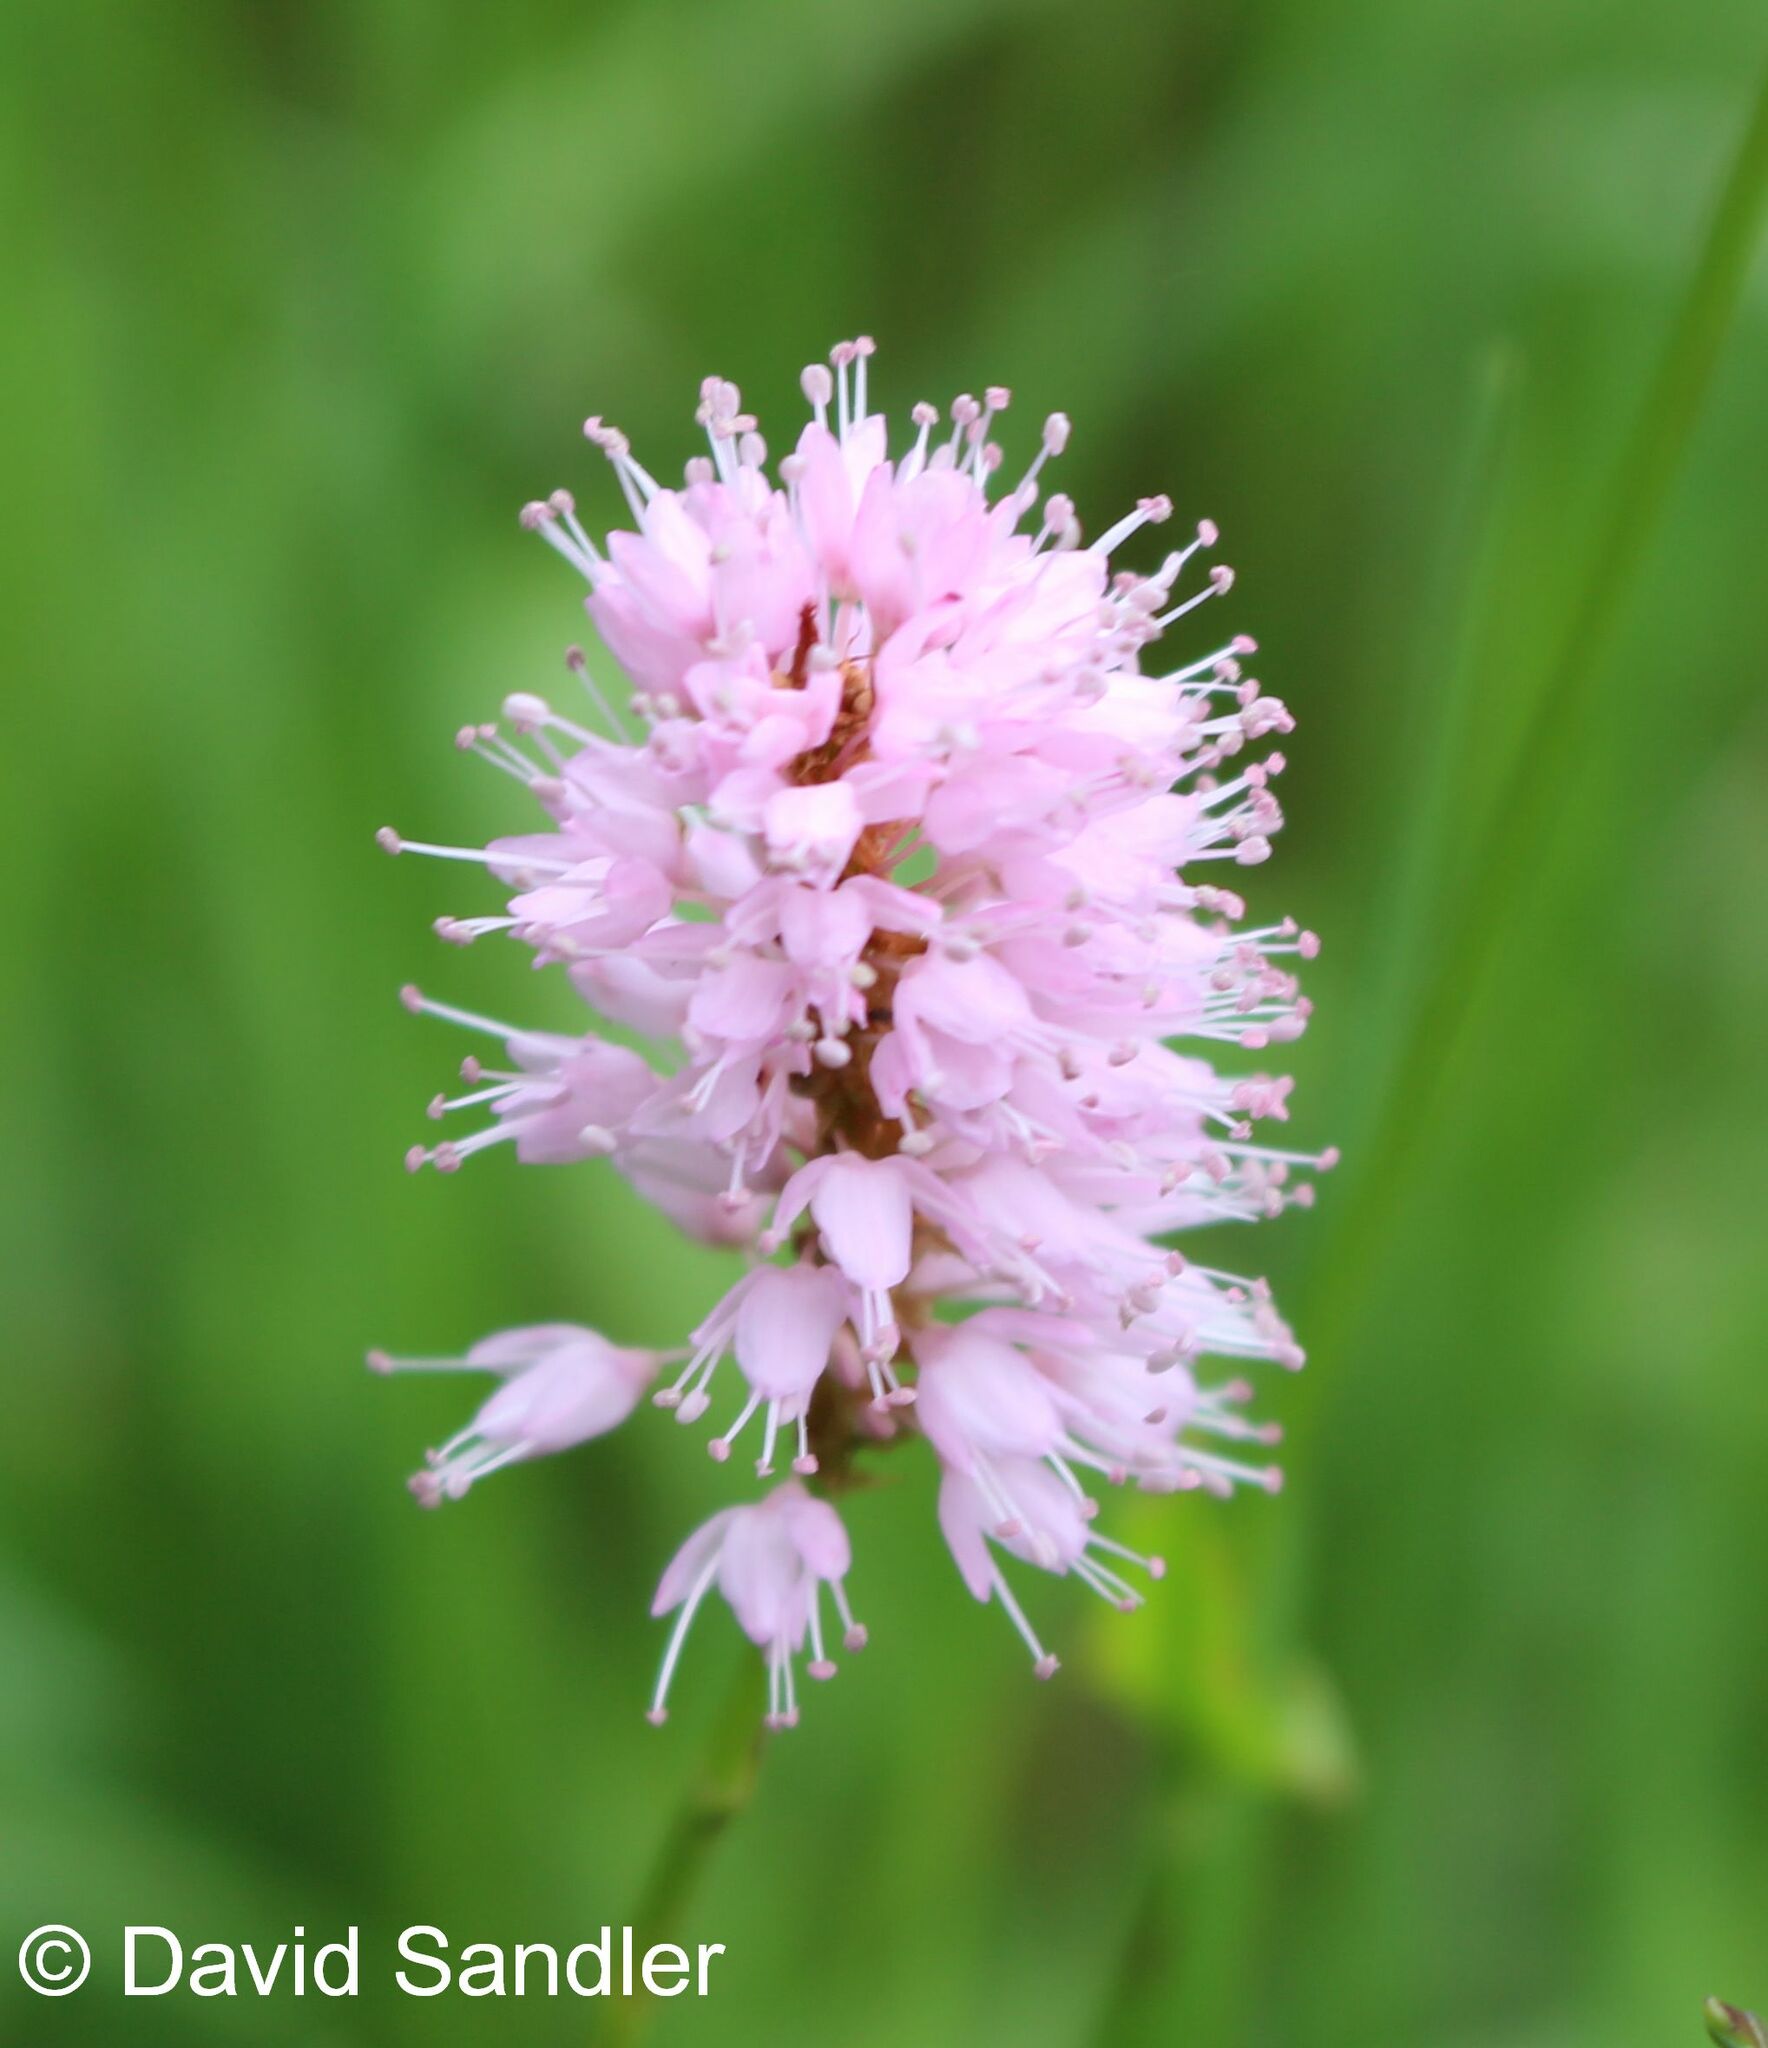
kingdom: Plantae
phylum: Tracheophyta
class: Magnoliopsida
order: Caryophyllales
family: Polygonaceae
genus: Bistorta
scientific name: Bistorta officinalis
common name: Common bistort
